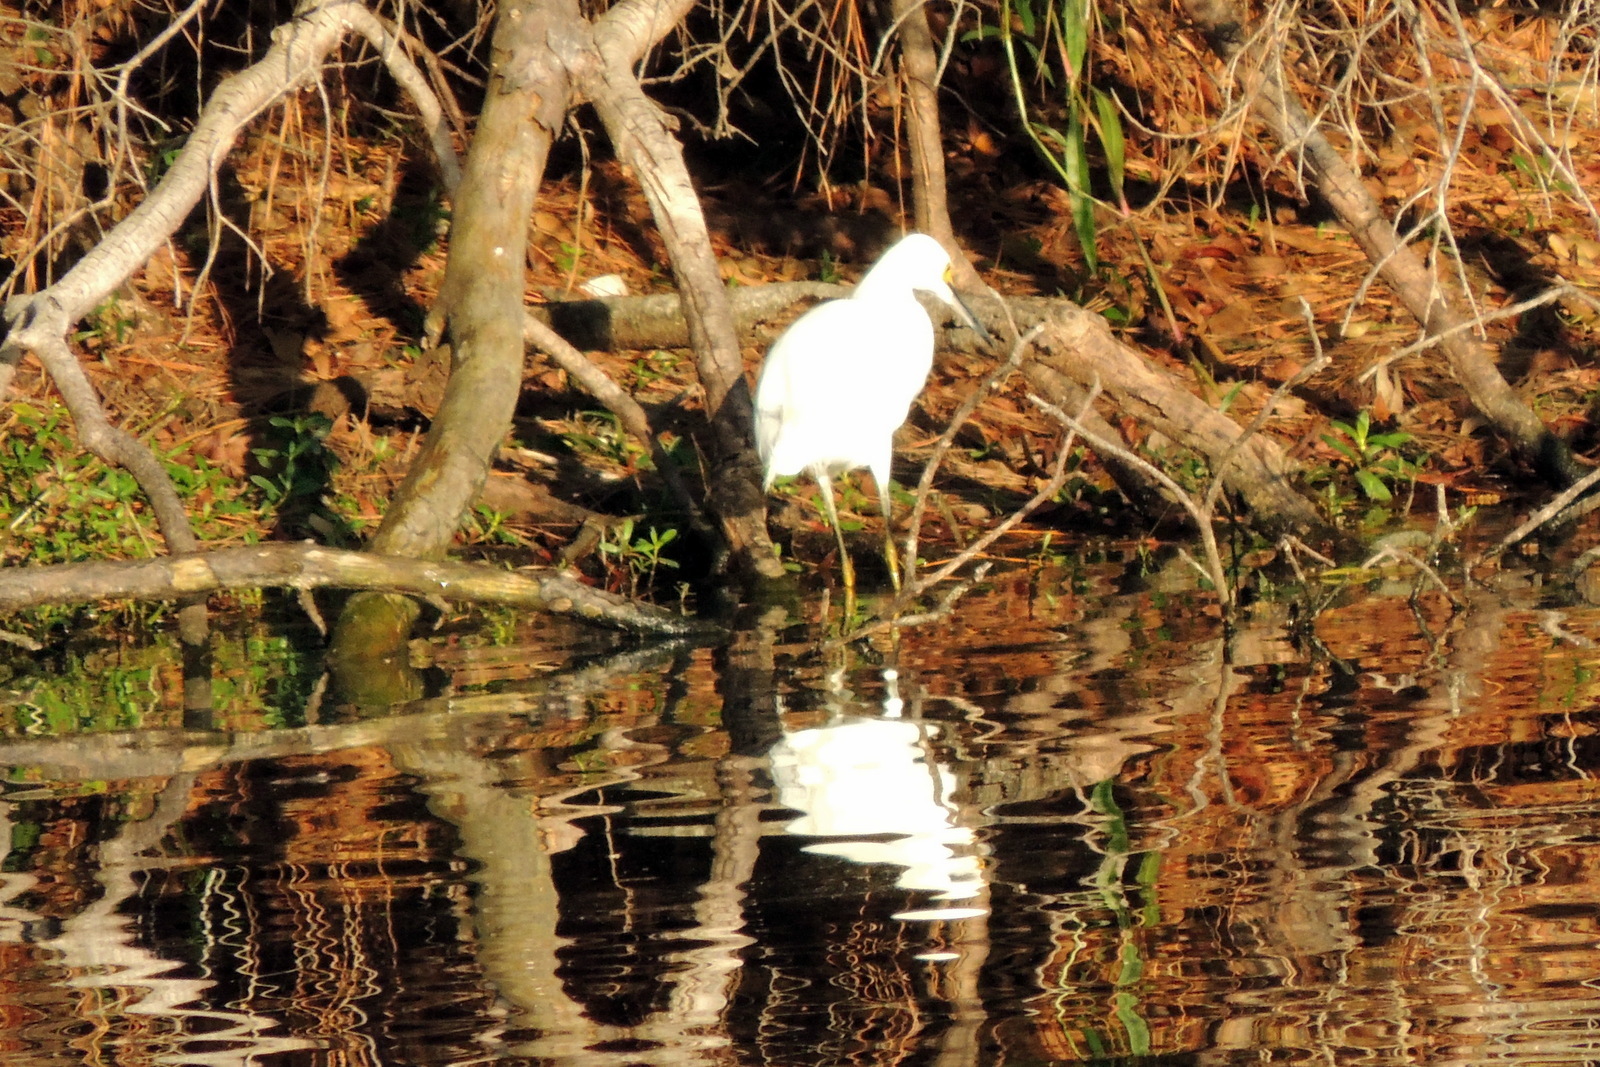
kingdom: Animalia
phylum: Chordata
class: Aves
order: Pelecaniformes
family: Ardeidae
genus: Egretta
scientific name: Egretta thula
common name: Snowy egret
